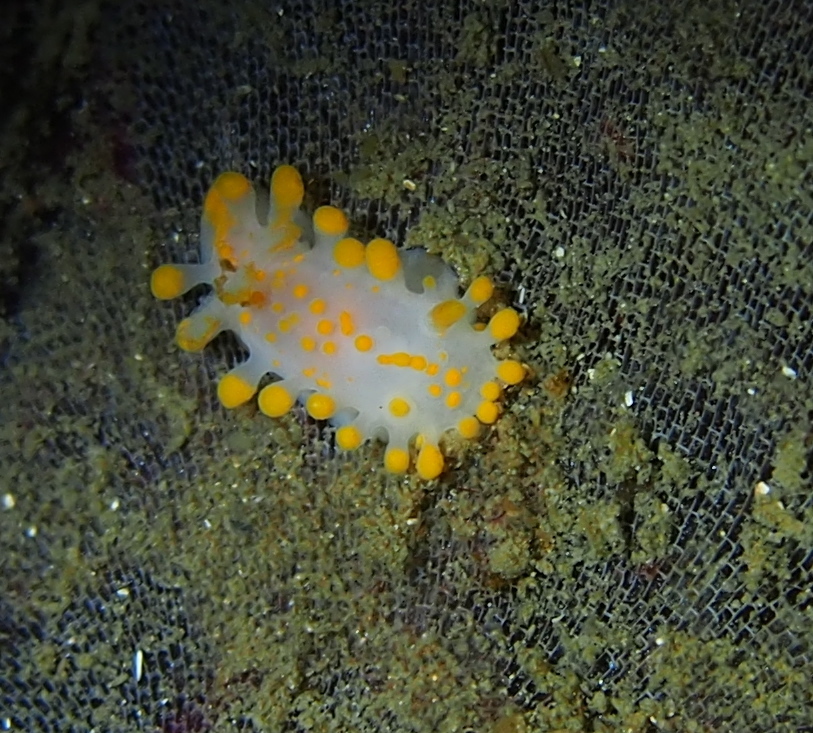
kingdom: Animalia
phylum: Mollusca
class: Gastropoda
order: Nudibranchia
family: Polyceridae
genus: Limacia
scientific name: Limacia clavigera
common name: Orange-clubbed sea slug
